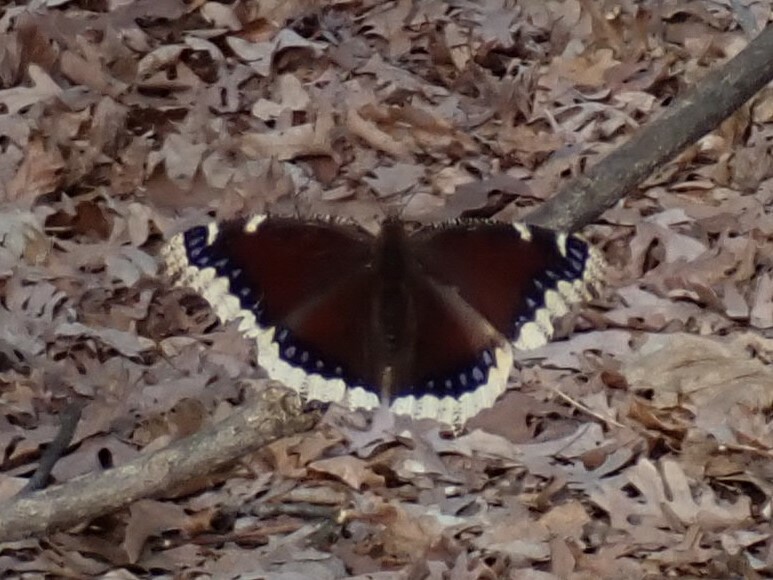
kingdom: Animalia
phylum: Arthropoda
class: Insecta
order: Lepidoptera
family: Nymphalidae
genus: Nymphalis
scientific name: Nymphalis antiopa
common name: Camberwell beauty
